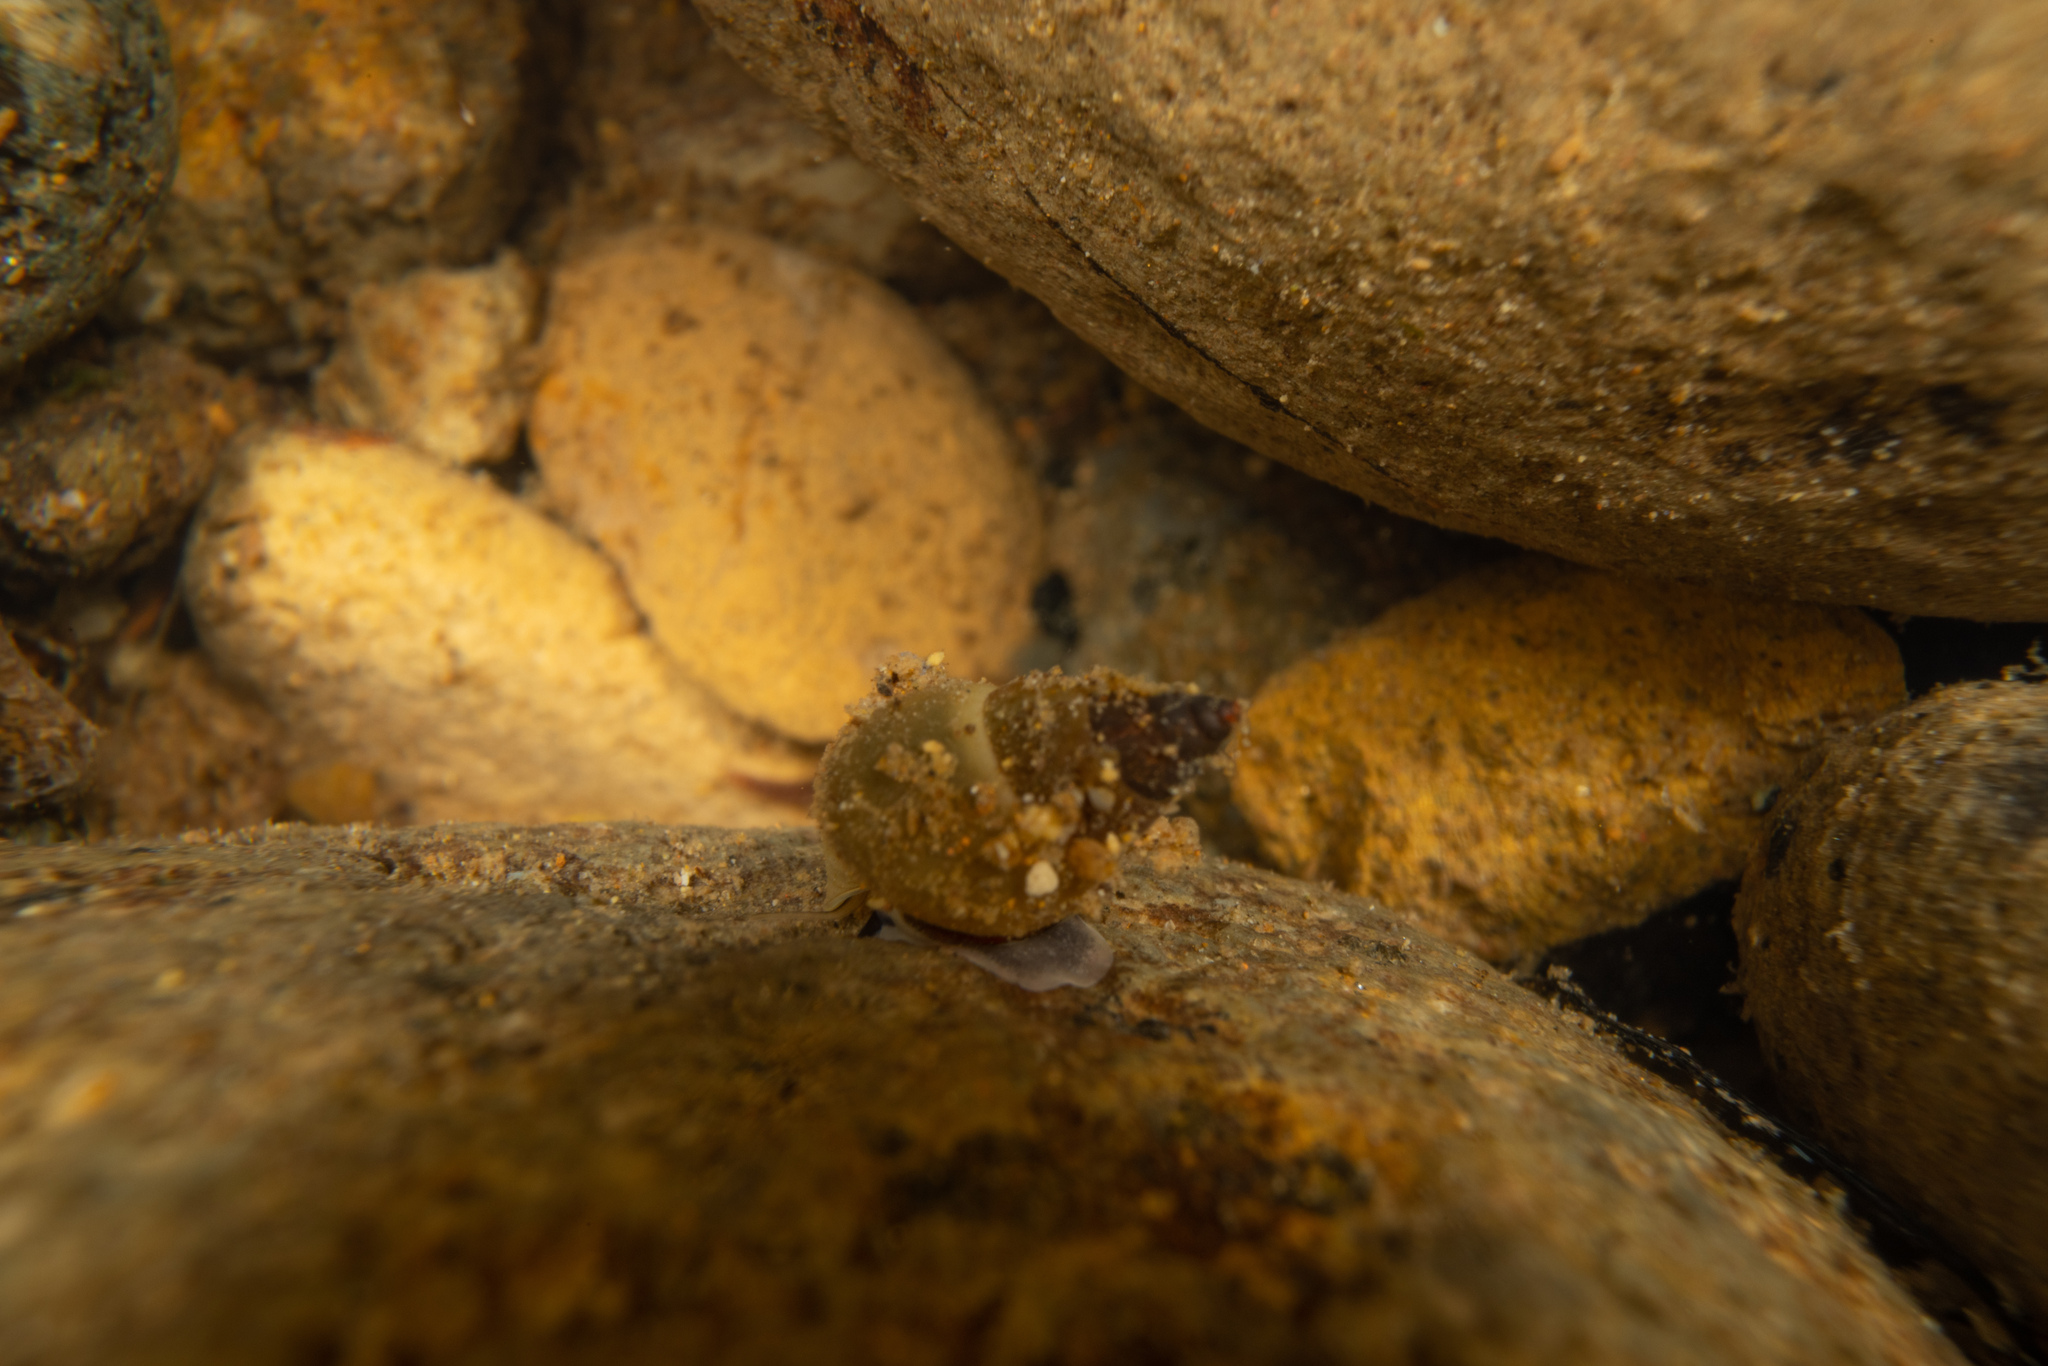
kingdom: Animalia
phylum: Mollusca
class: Gastropoda
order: Littorinimorpha
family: Tateidae
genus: Potamopyrgus
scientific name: Potamopyrgus antipodarum
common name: Jenkins' spire snail
